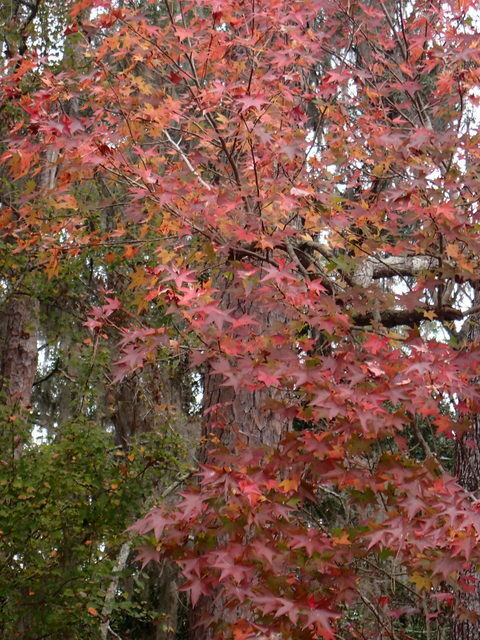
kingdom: Plantae
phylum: Tracheophyta
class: Magnoliopsida
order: Saxifragales
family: Altingiaceae
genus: Liquidambar
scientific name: Liquidambar styraciflua
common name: Sweet gum
